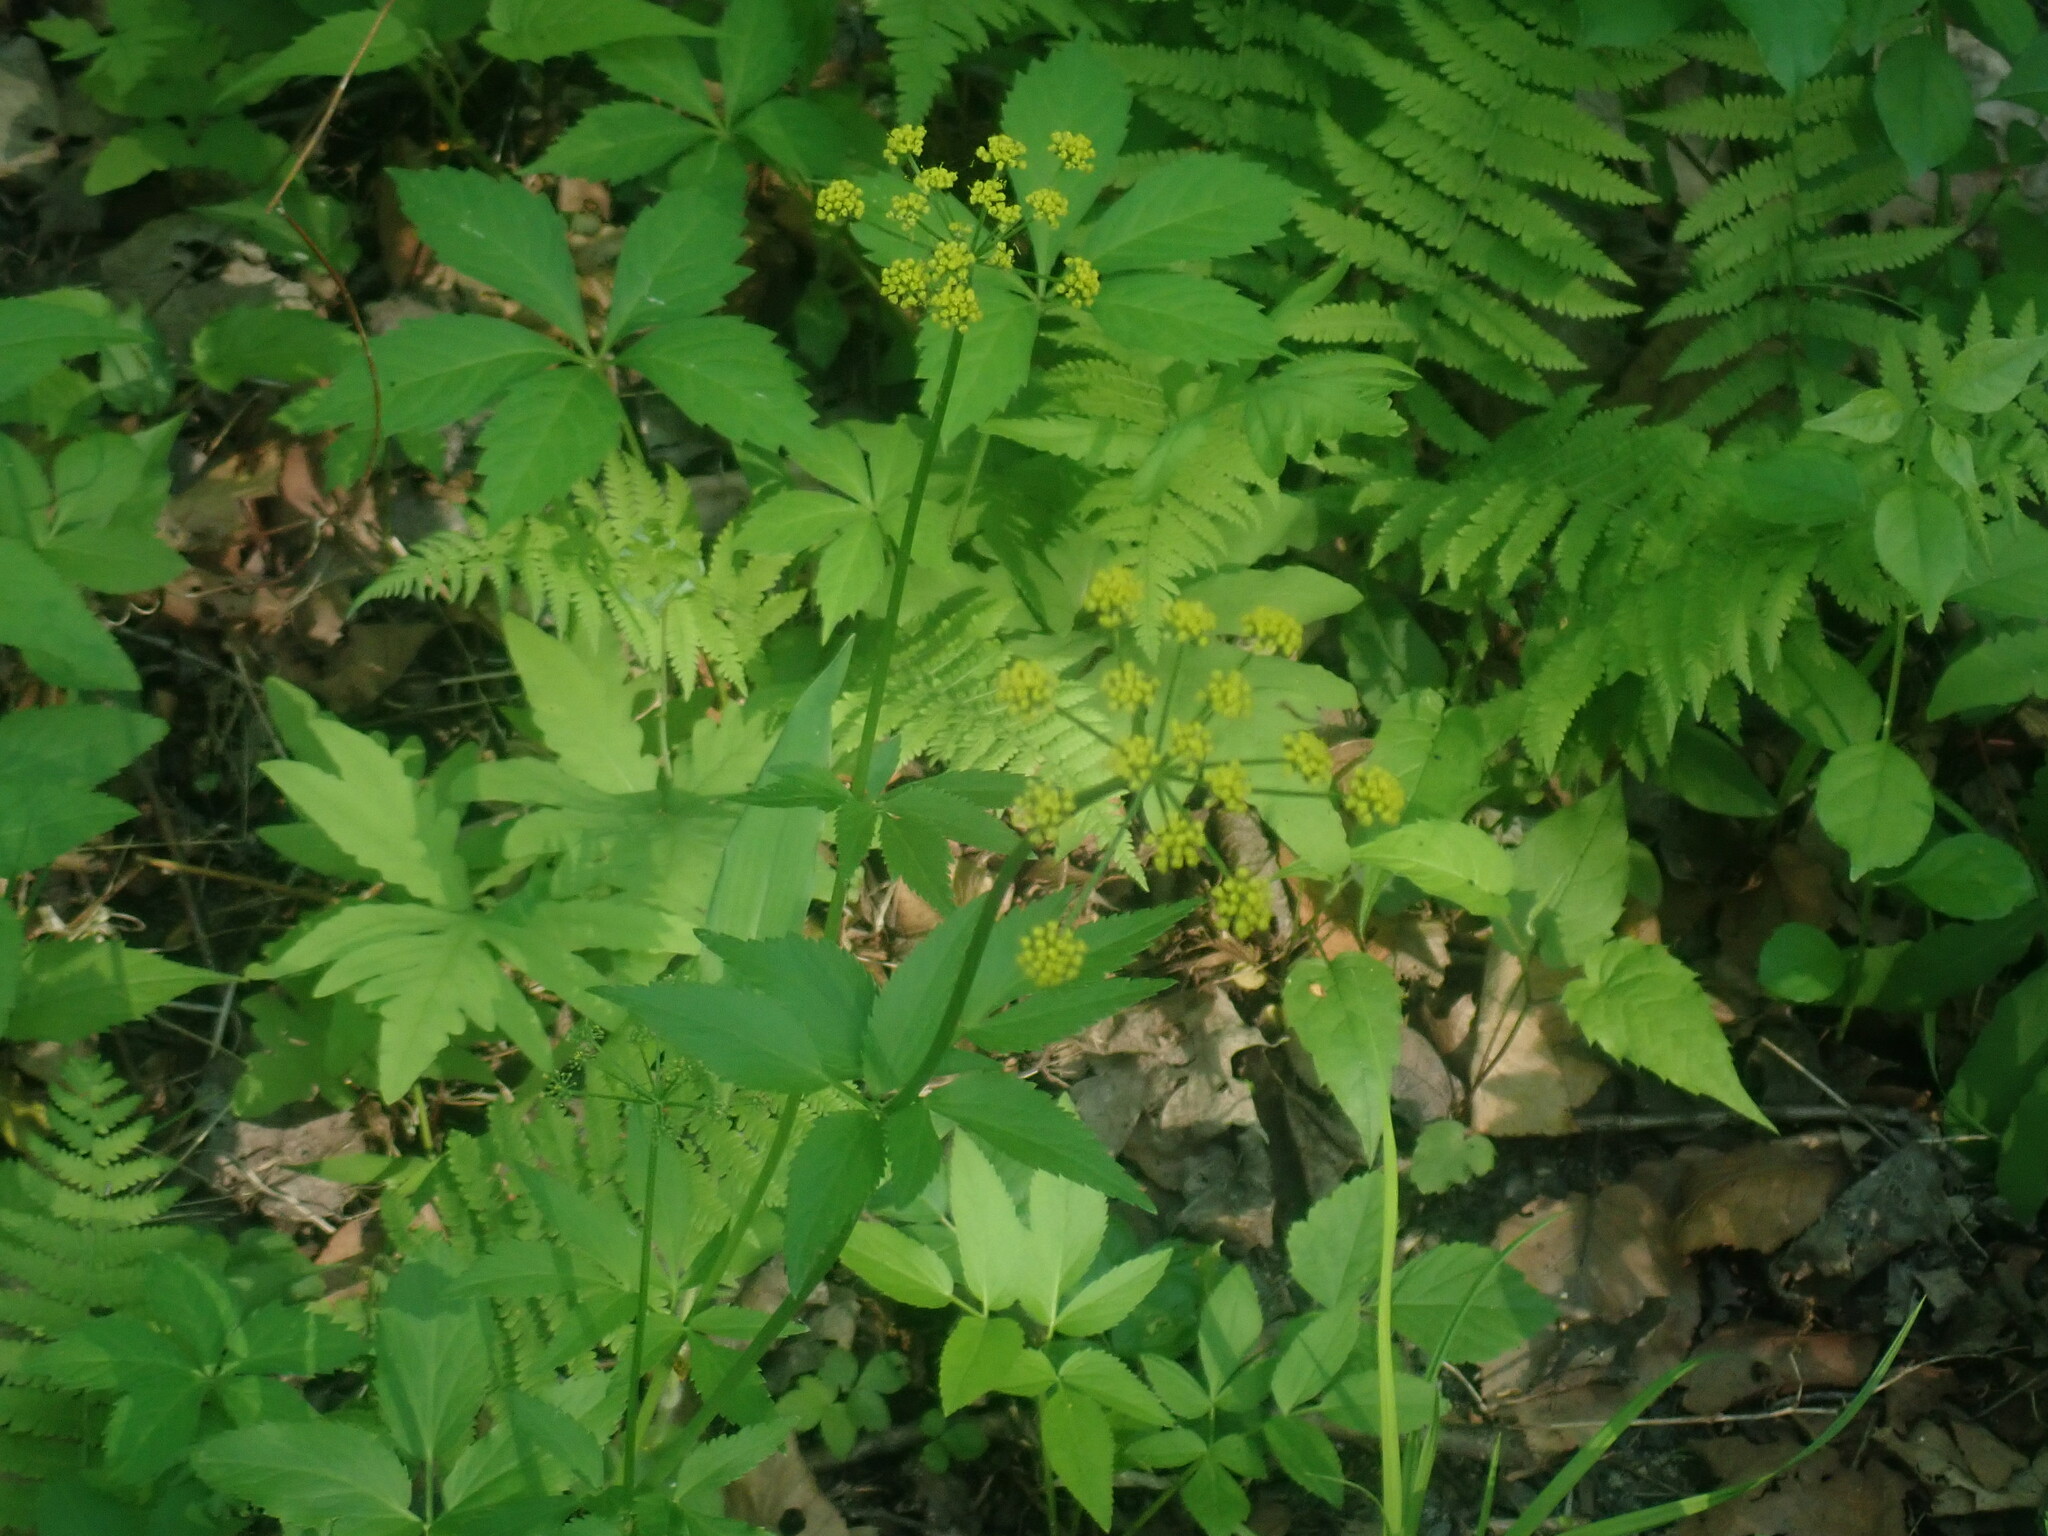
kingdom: Plantae
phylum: Tracheophyta
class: Magnoliopsida
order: Apiales
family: Apiaceae
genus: Zizia
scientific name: Zizia aurea
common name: Golden alexanders
